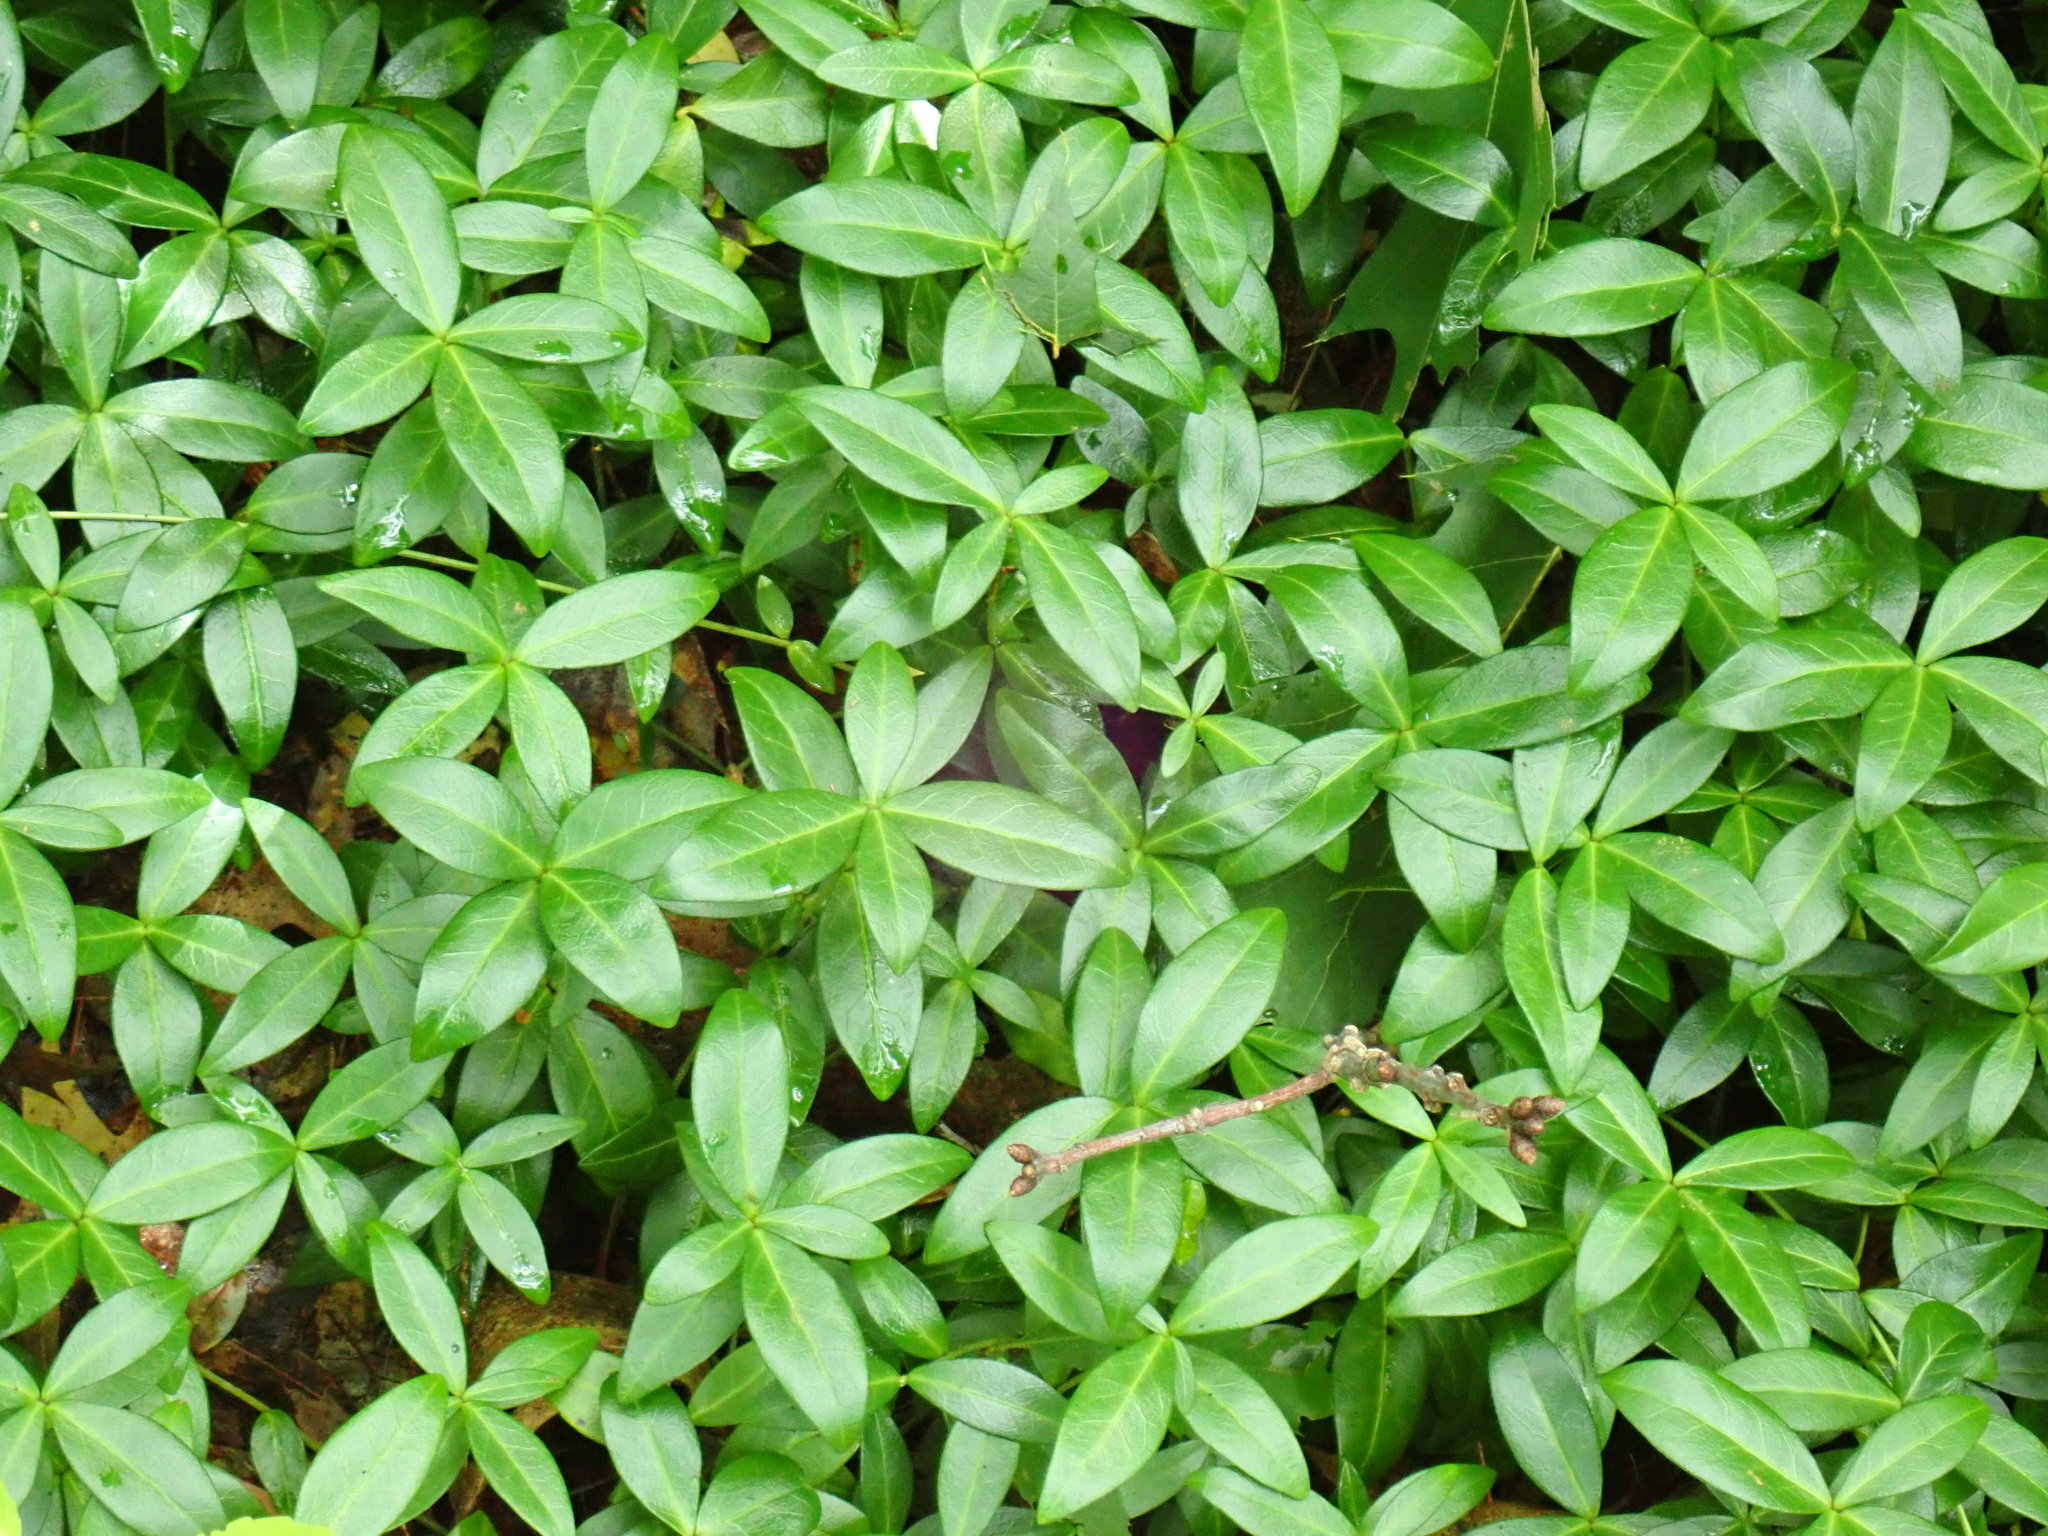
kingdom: Plantae
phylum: Tracheophyta
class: Magnoliopsida
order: Gentianales
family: Apocynaceae
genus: Vinca
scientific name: Vinca minor
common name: Lesser periwinkle
